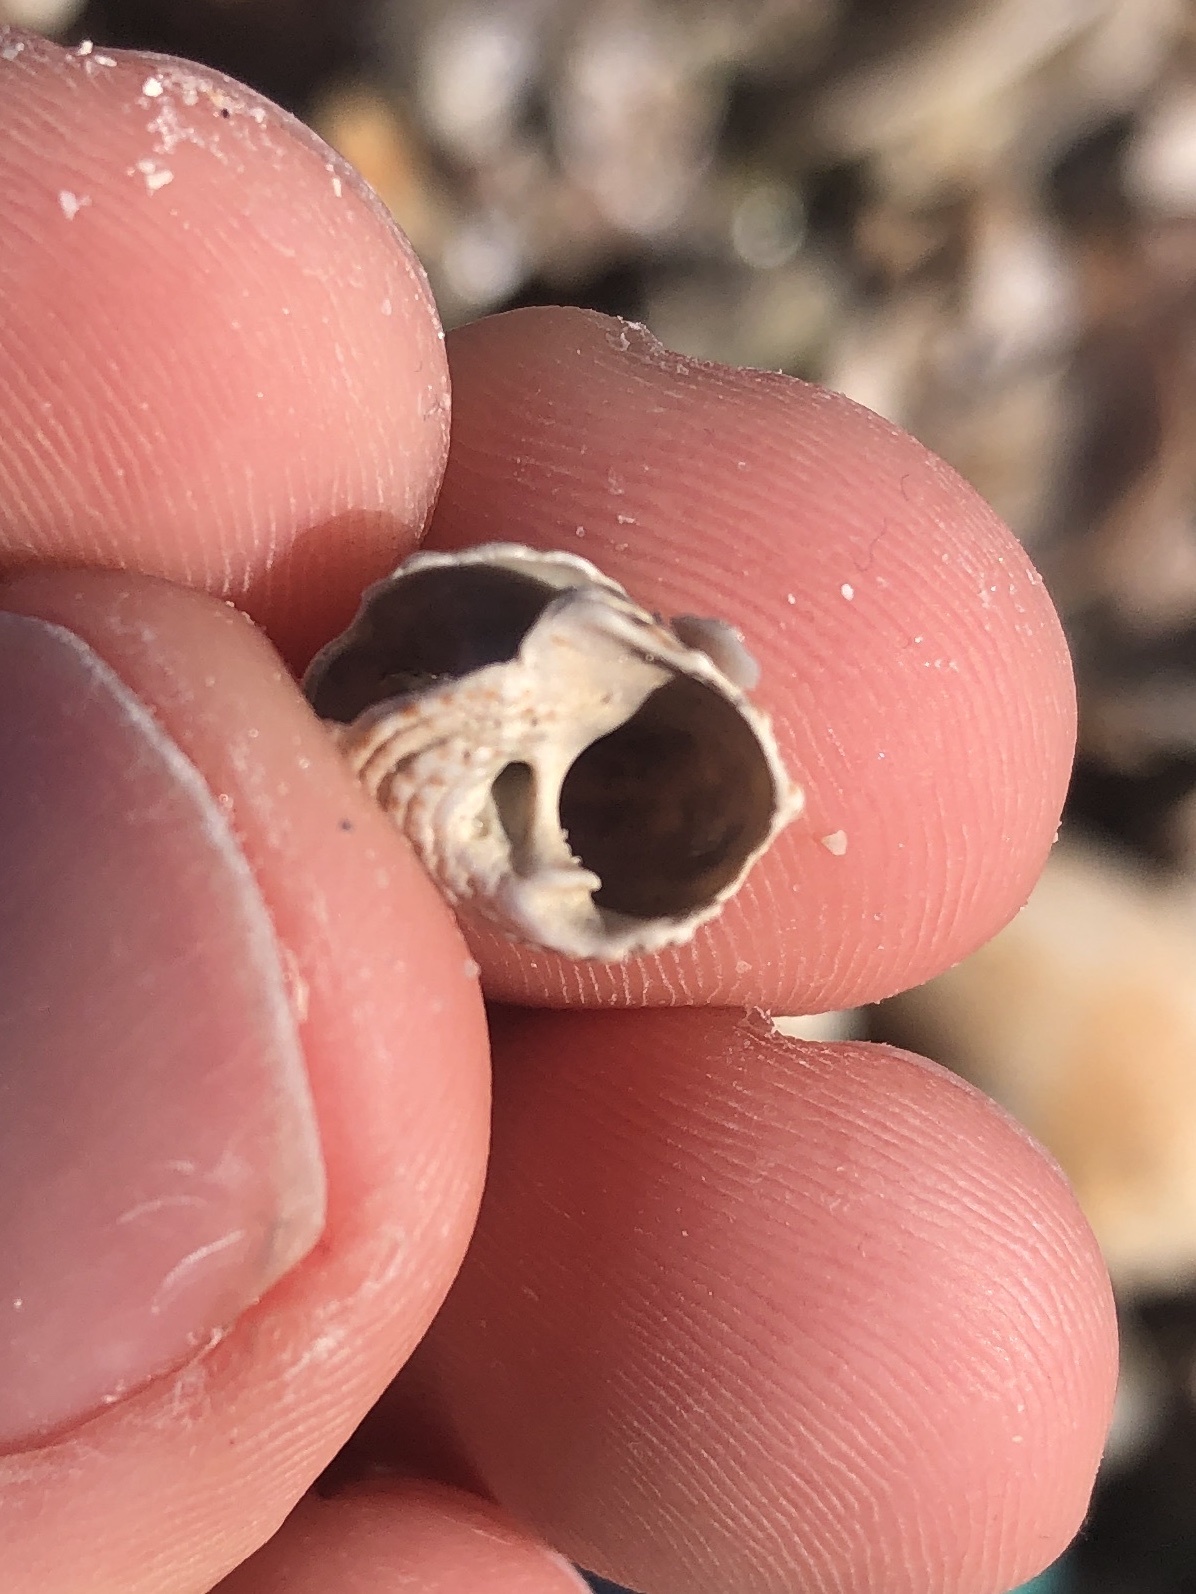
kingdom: Animalia
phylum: Mollusca
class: Gastropoda
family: Modulidae
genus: Modulus
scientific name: Modulus modulus
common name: Atlantic modulus
